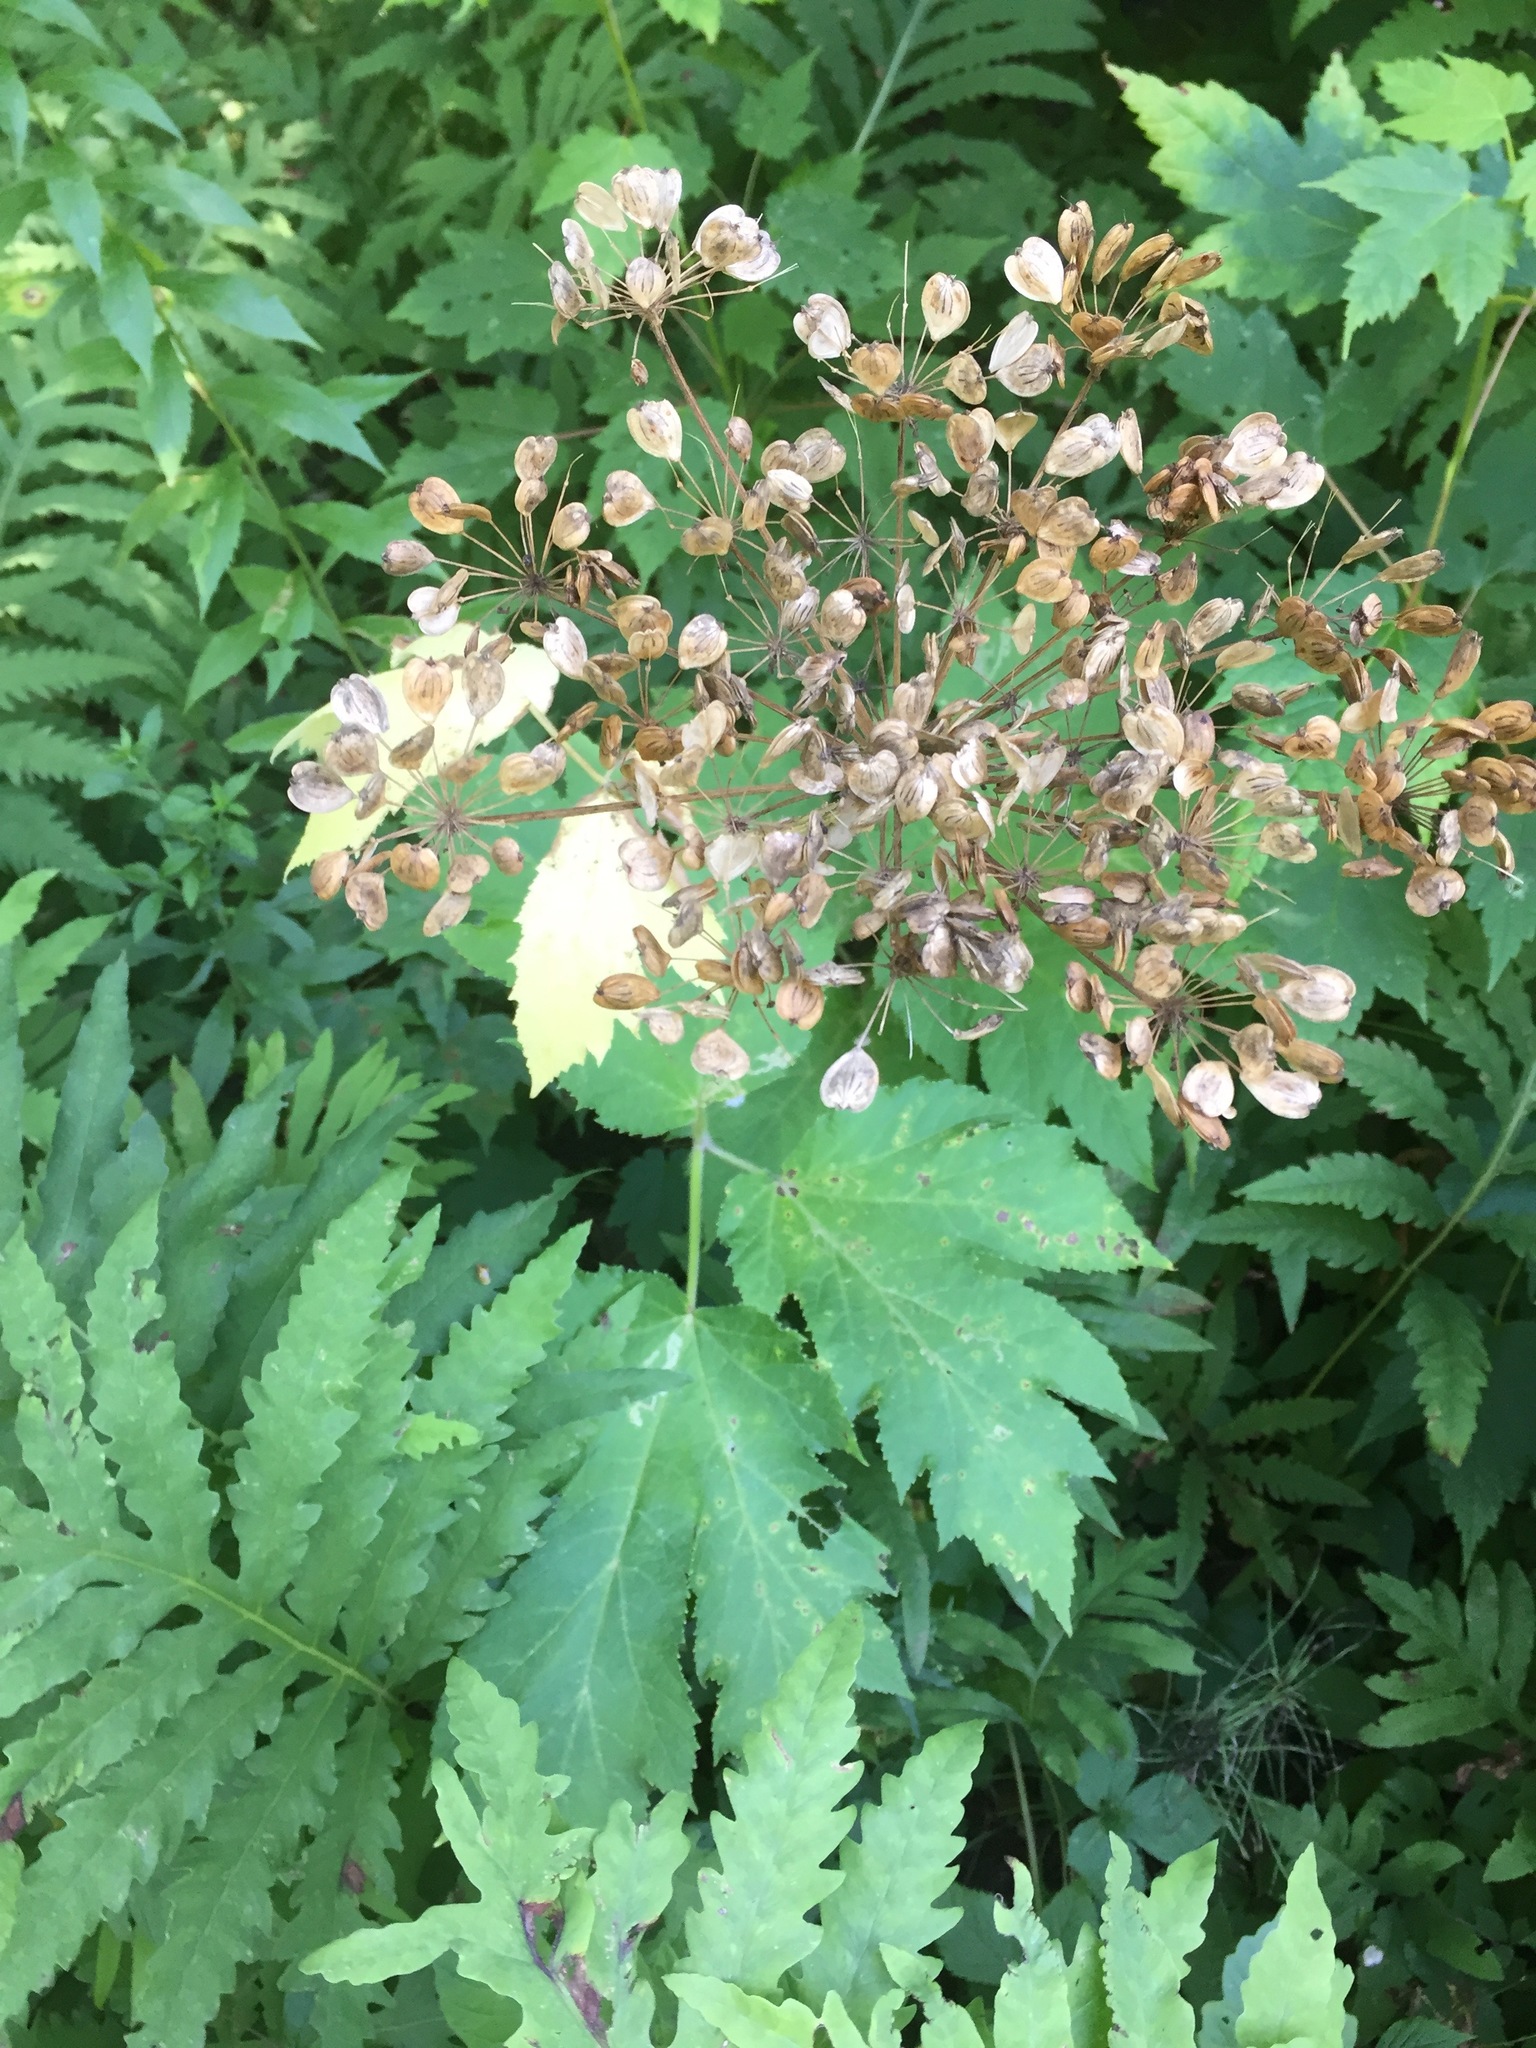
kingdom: Plantae
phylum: Tracheophyta
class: Magnoliopsida
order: Apiales
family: Apiaceae
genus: Heracleum
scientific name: Heracleum maximum
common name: American cow parsnip
